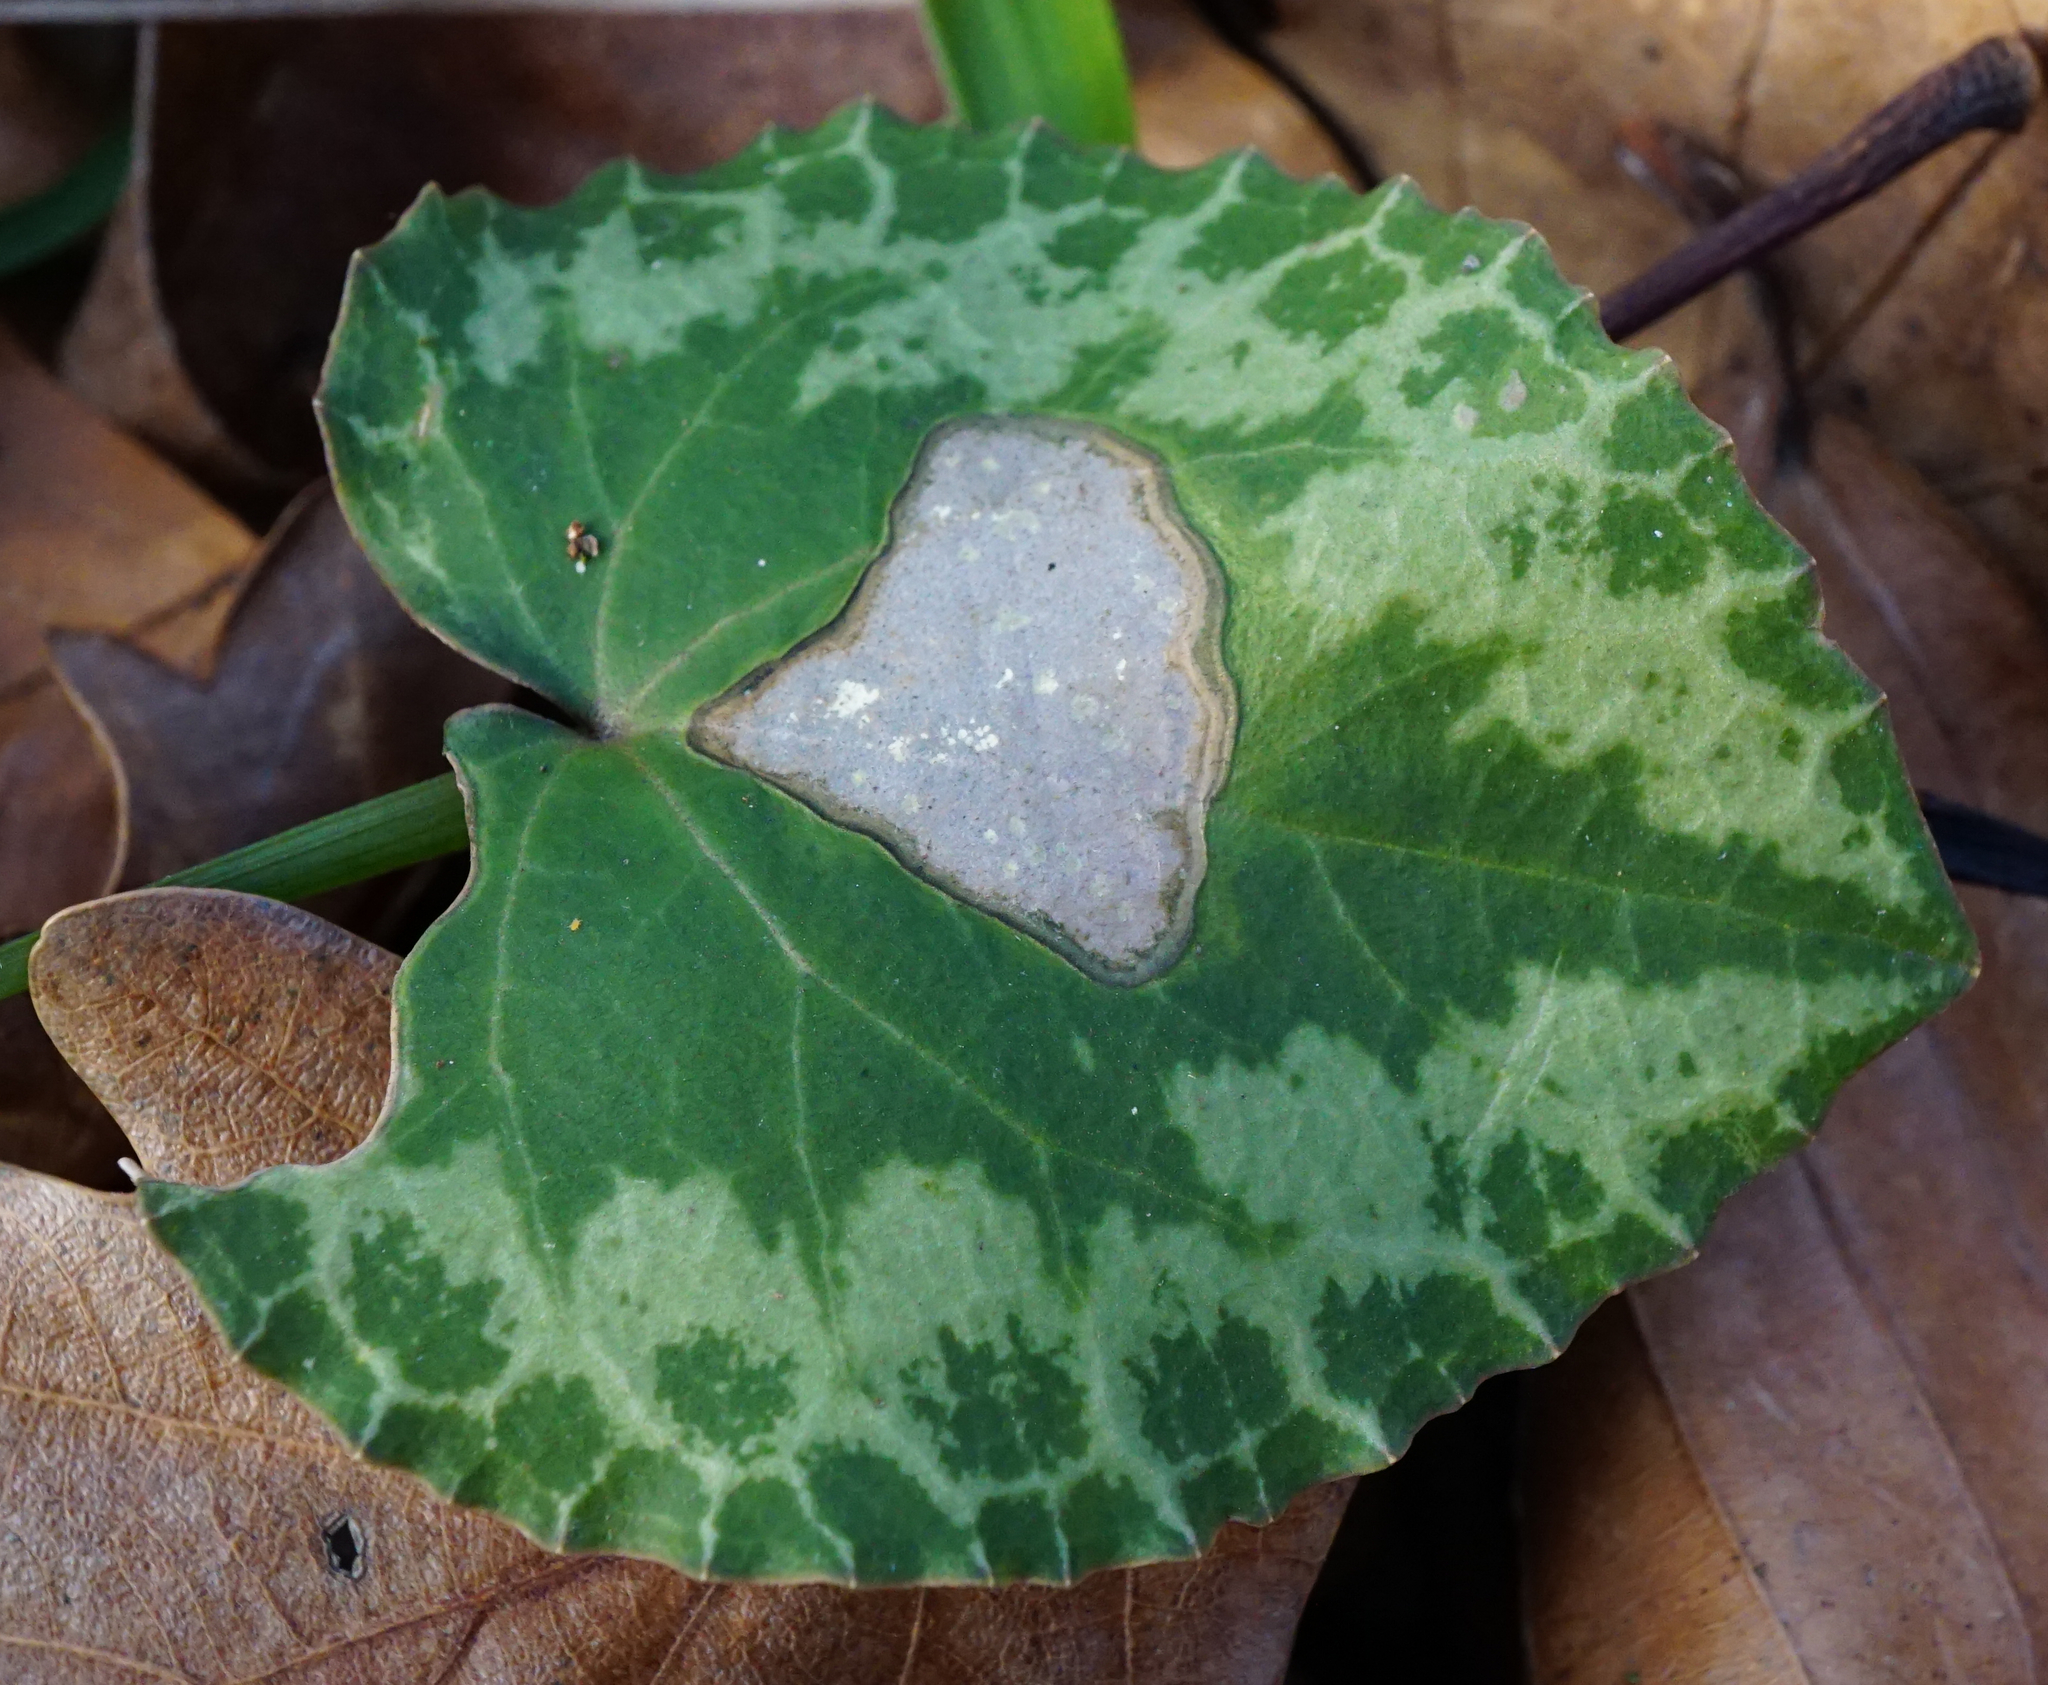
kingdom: Plantae
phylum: Tracheophyta
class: Magnoliopsida
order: Ericales
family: Primulaceae
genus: Cyclamen
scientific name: Cyclamen purpurascens
